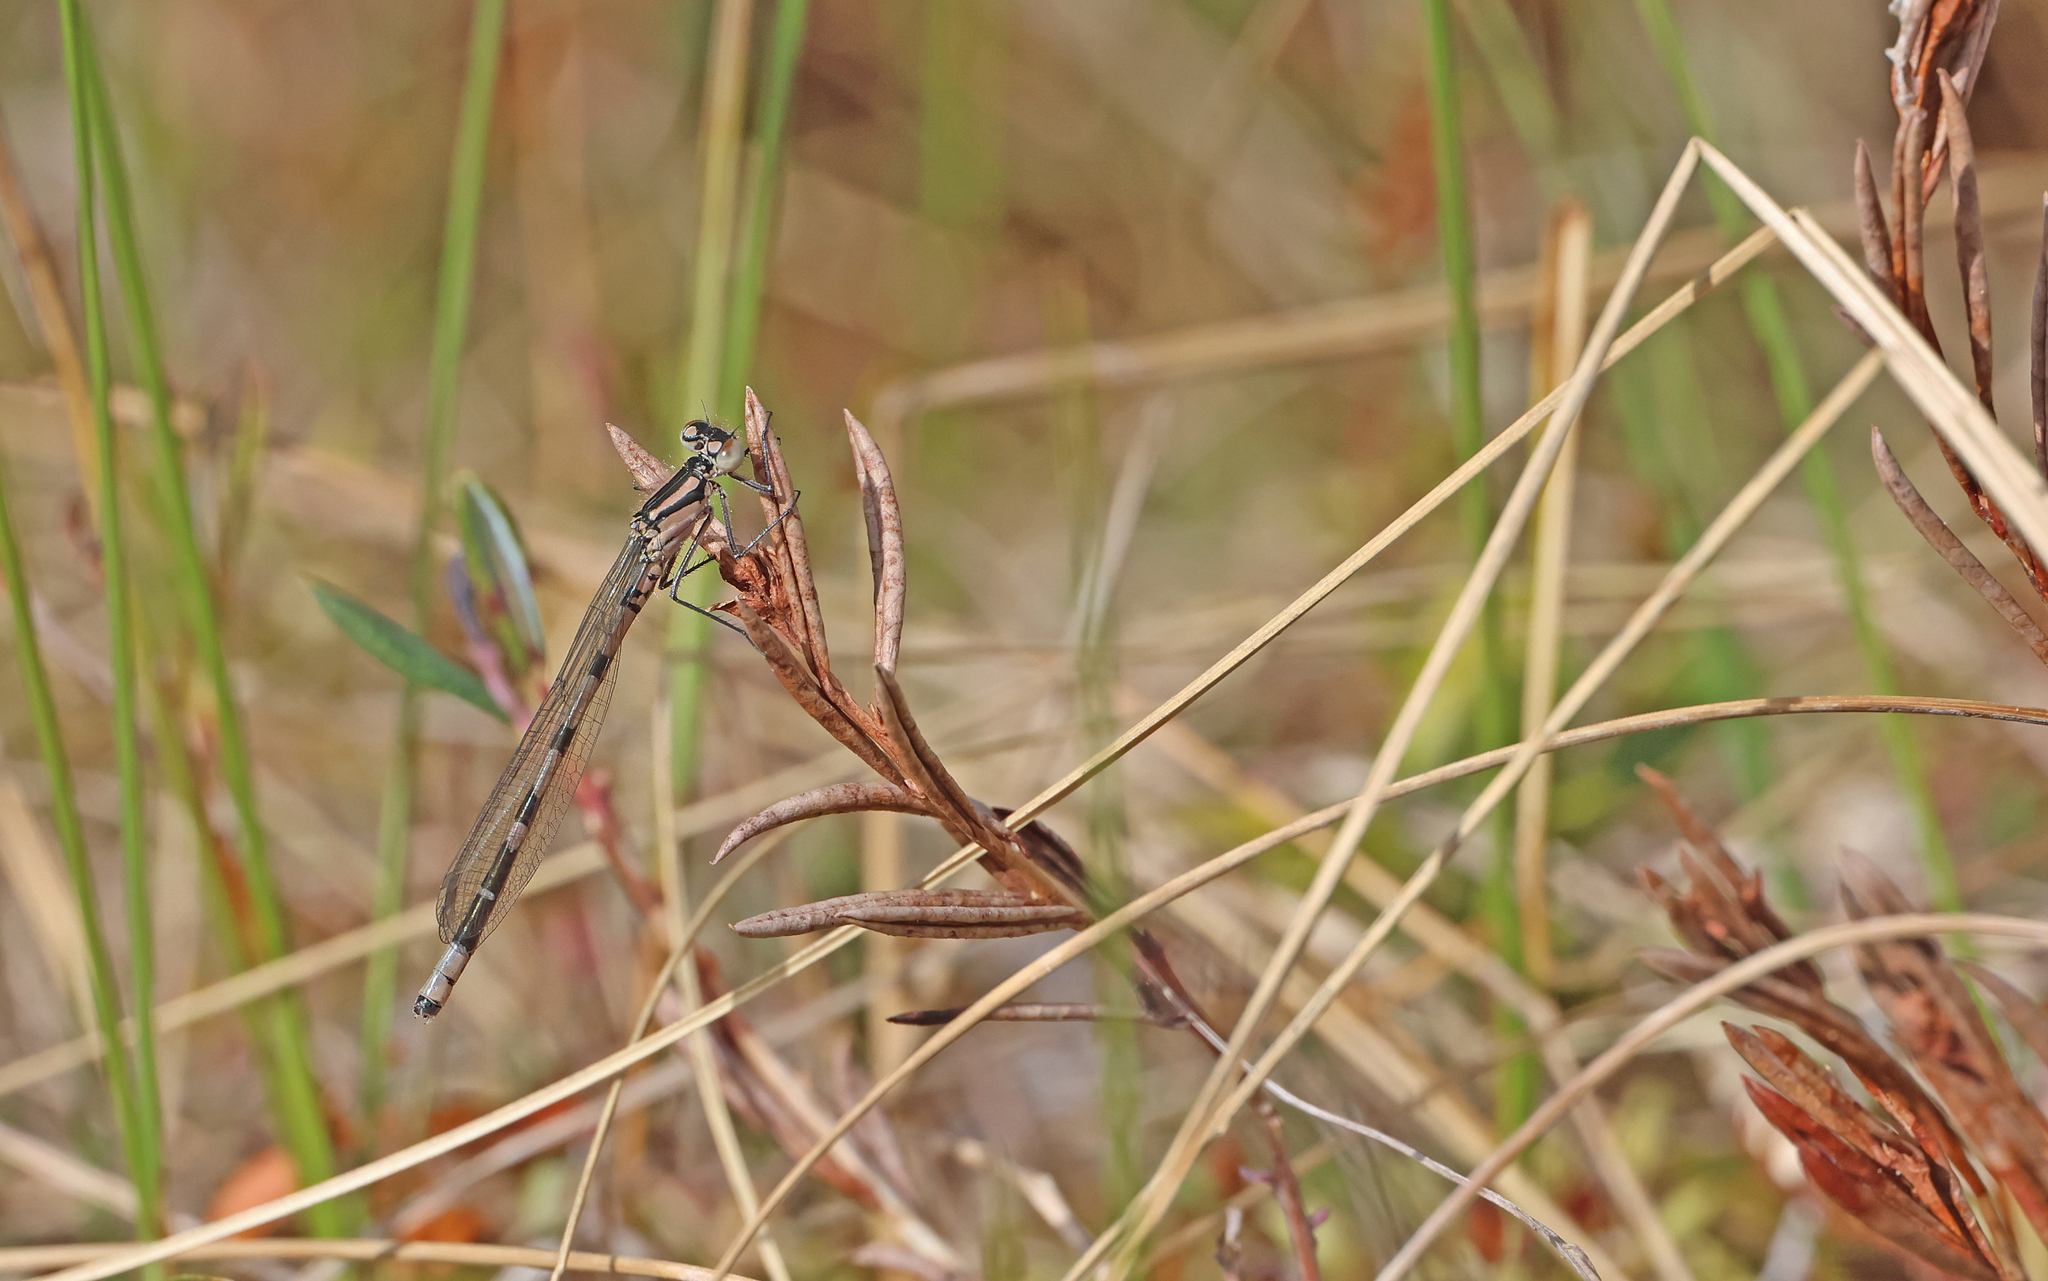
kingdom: Animalia
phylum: Arthropoda
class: Insecta
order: Odonata
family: Coenagrionidae
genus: Enallagma
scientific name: Enallagma cyathigerum
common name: Common blue damselfly
